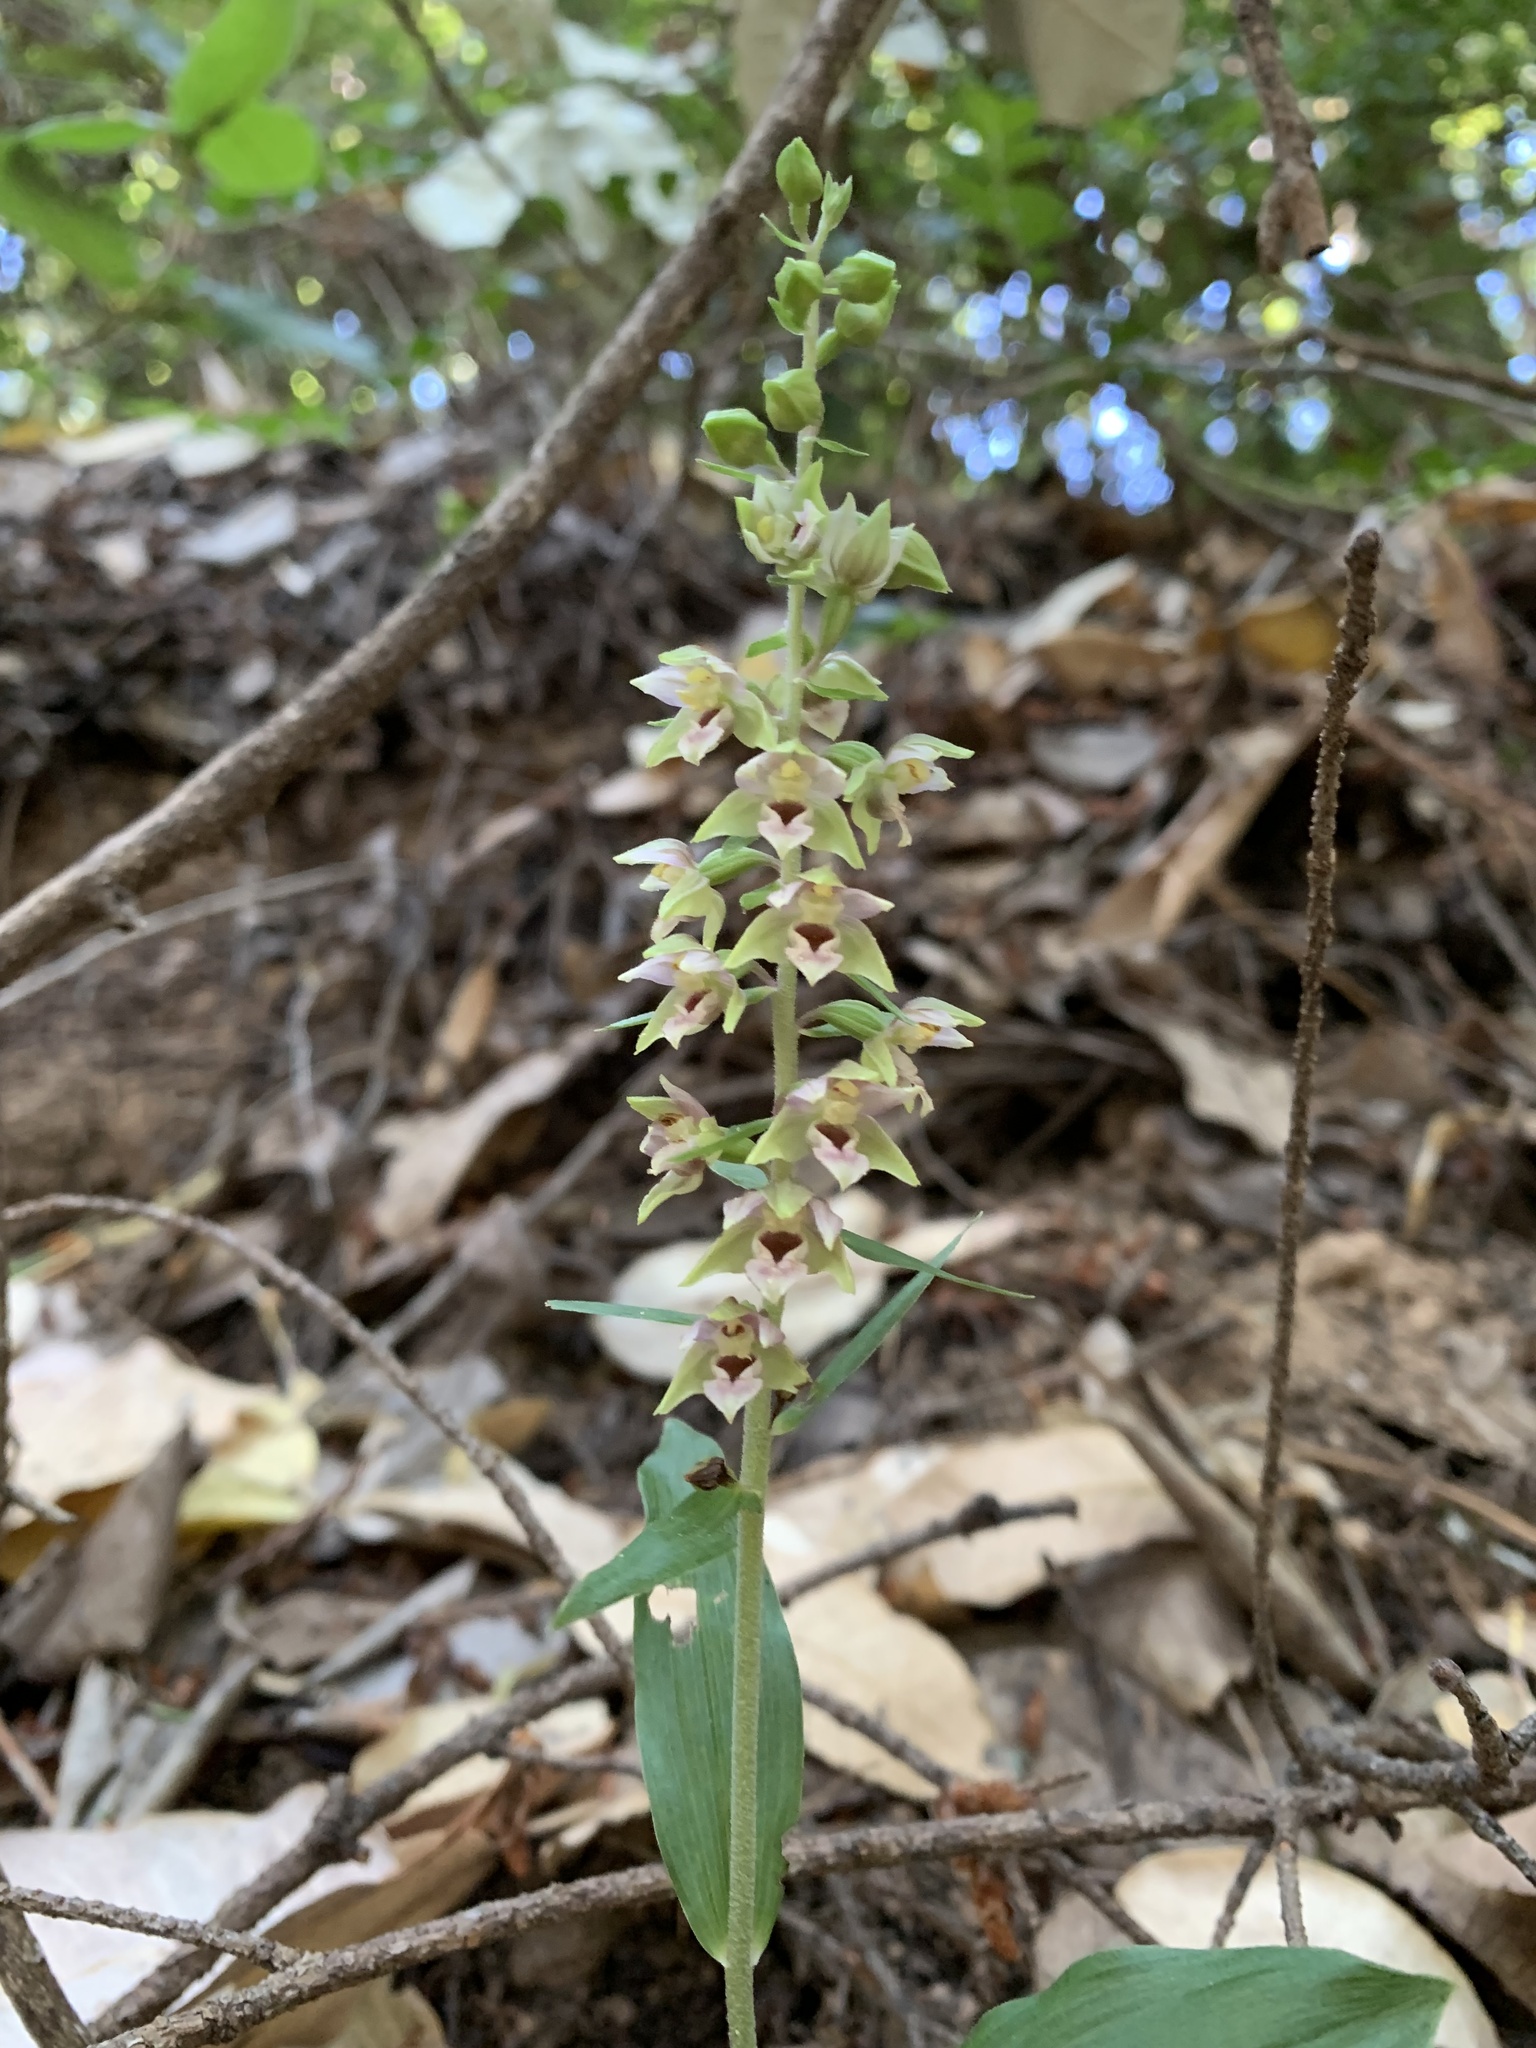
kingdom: Plantae
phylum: Tracheophyta
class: Liliopsida
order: Asparagales
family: Orchidaceae
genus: Epipactis
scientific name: Epipactis helleborine
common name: Broad-leaved helleborine
